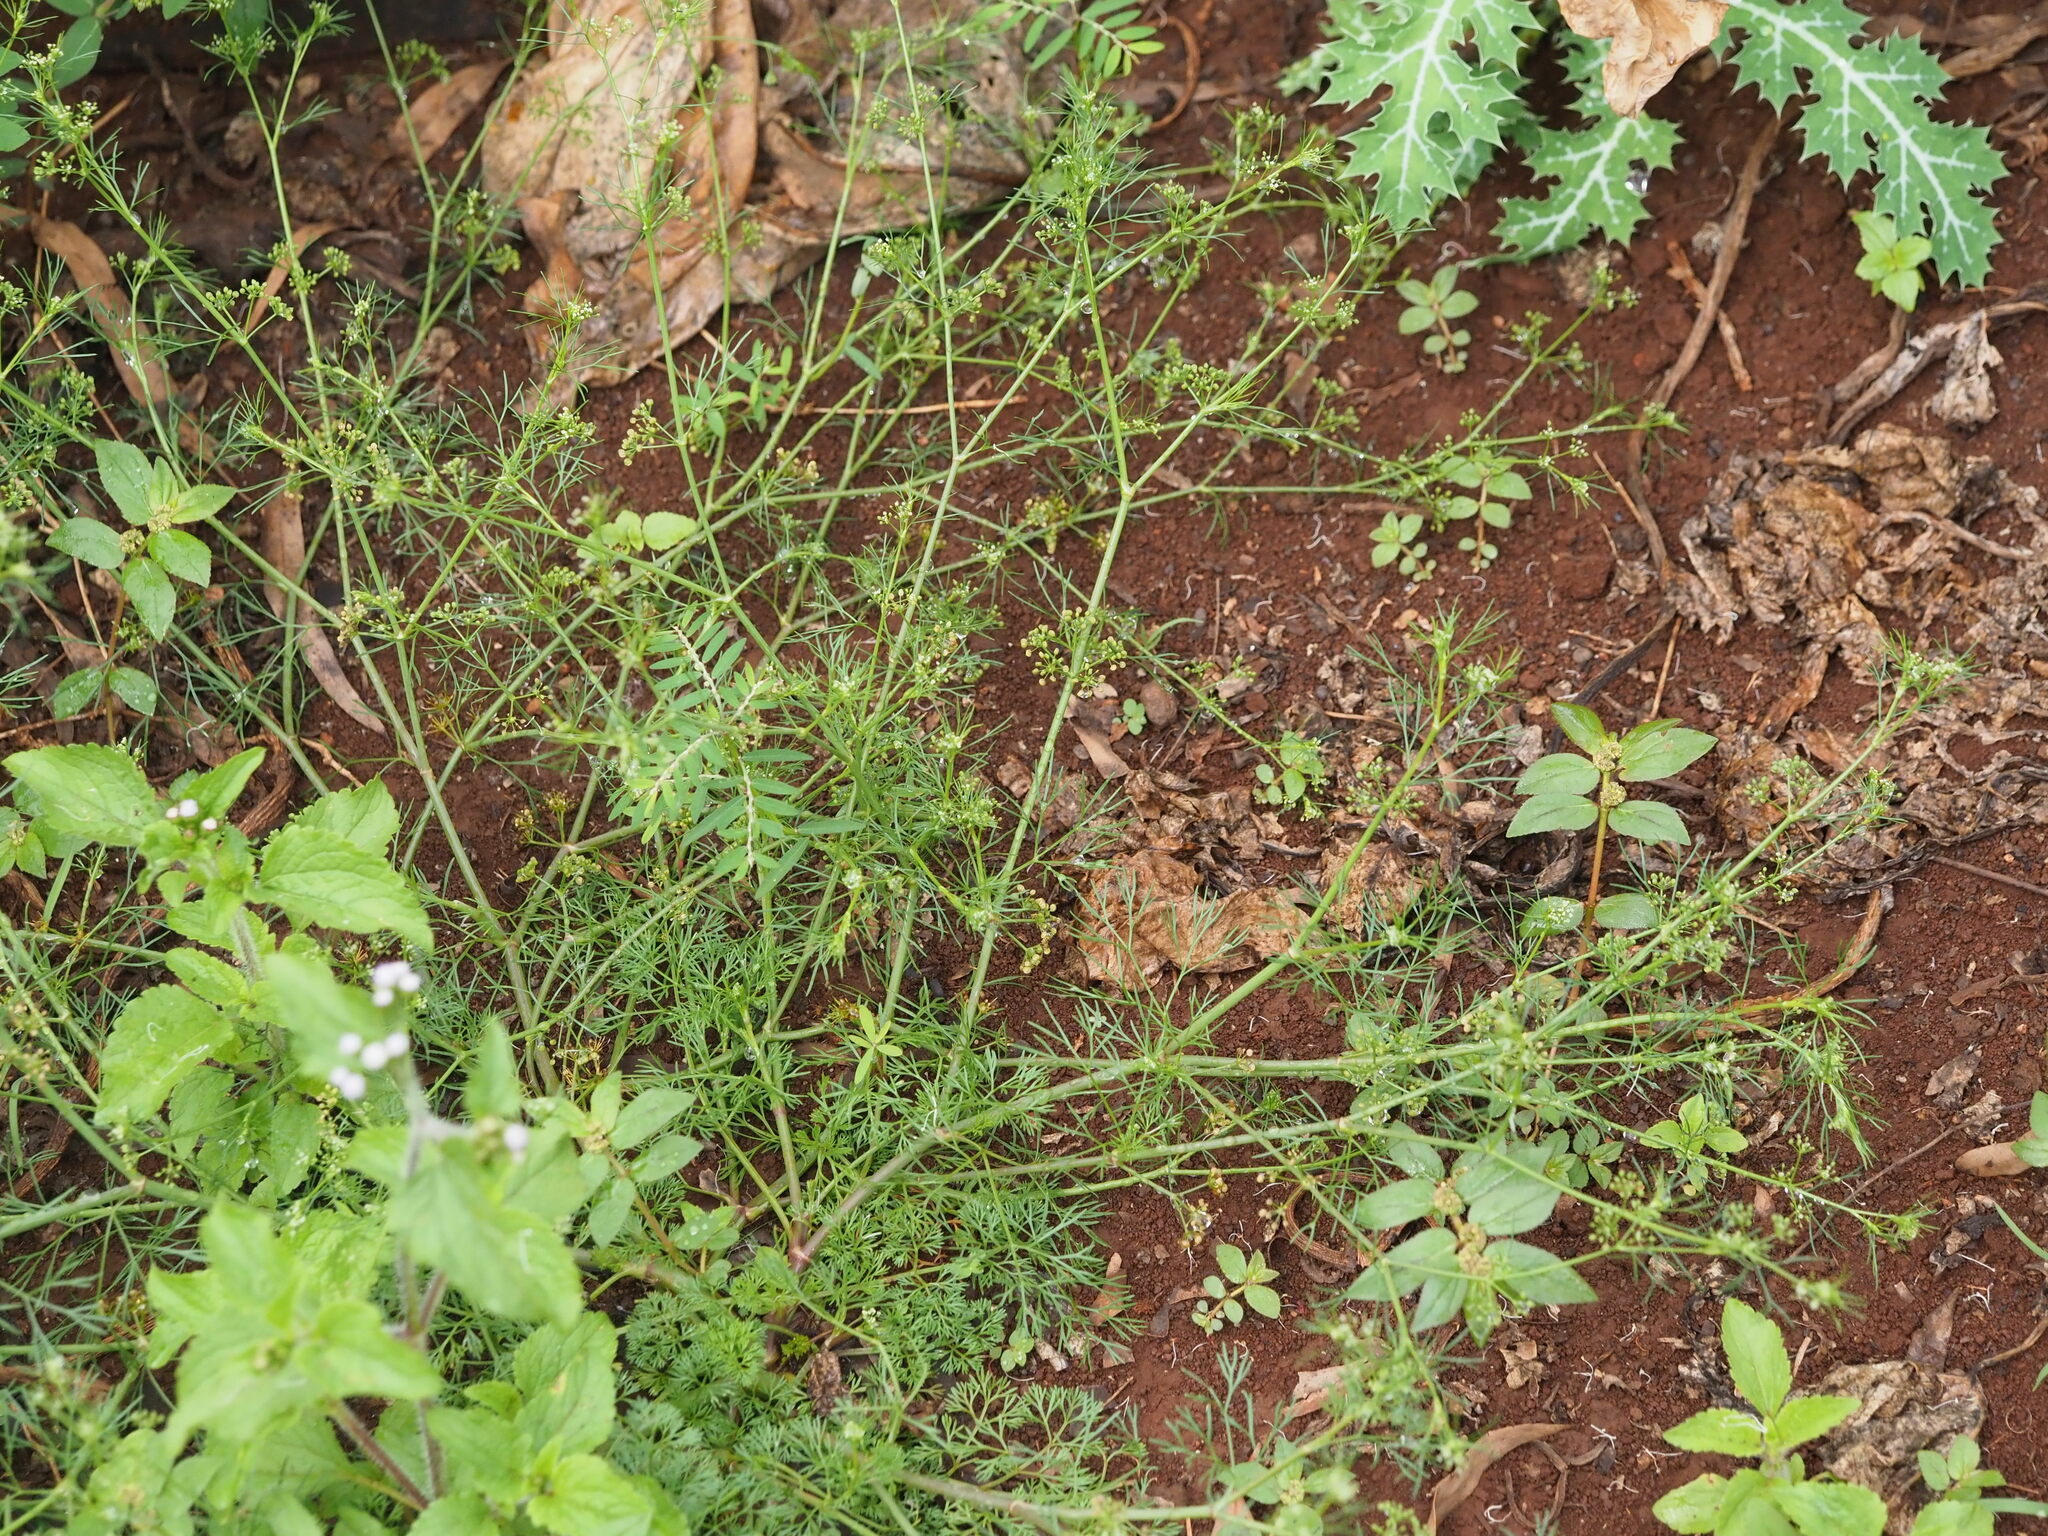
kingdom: Plantae
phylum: Tracheophyta
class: Magnoliopsida
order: Apiales
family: Apiaceae
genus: Cyclospermum
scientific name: Cyclospermum leptophyllum
